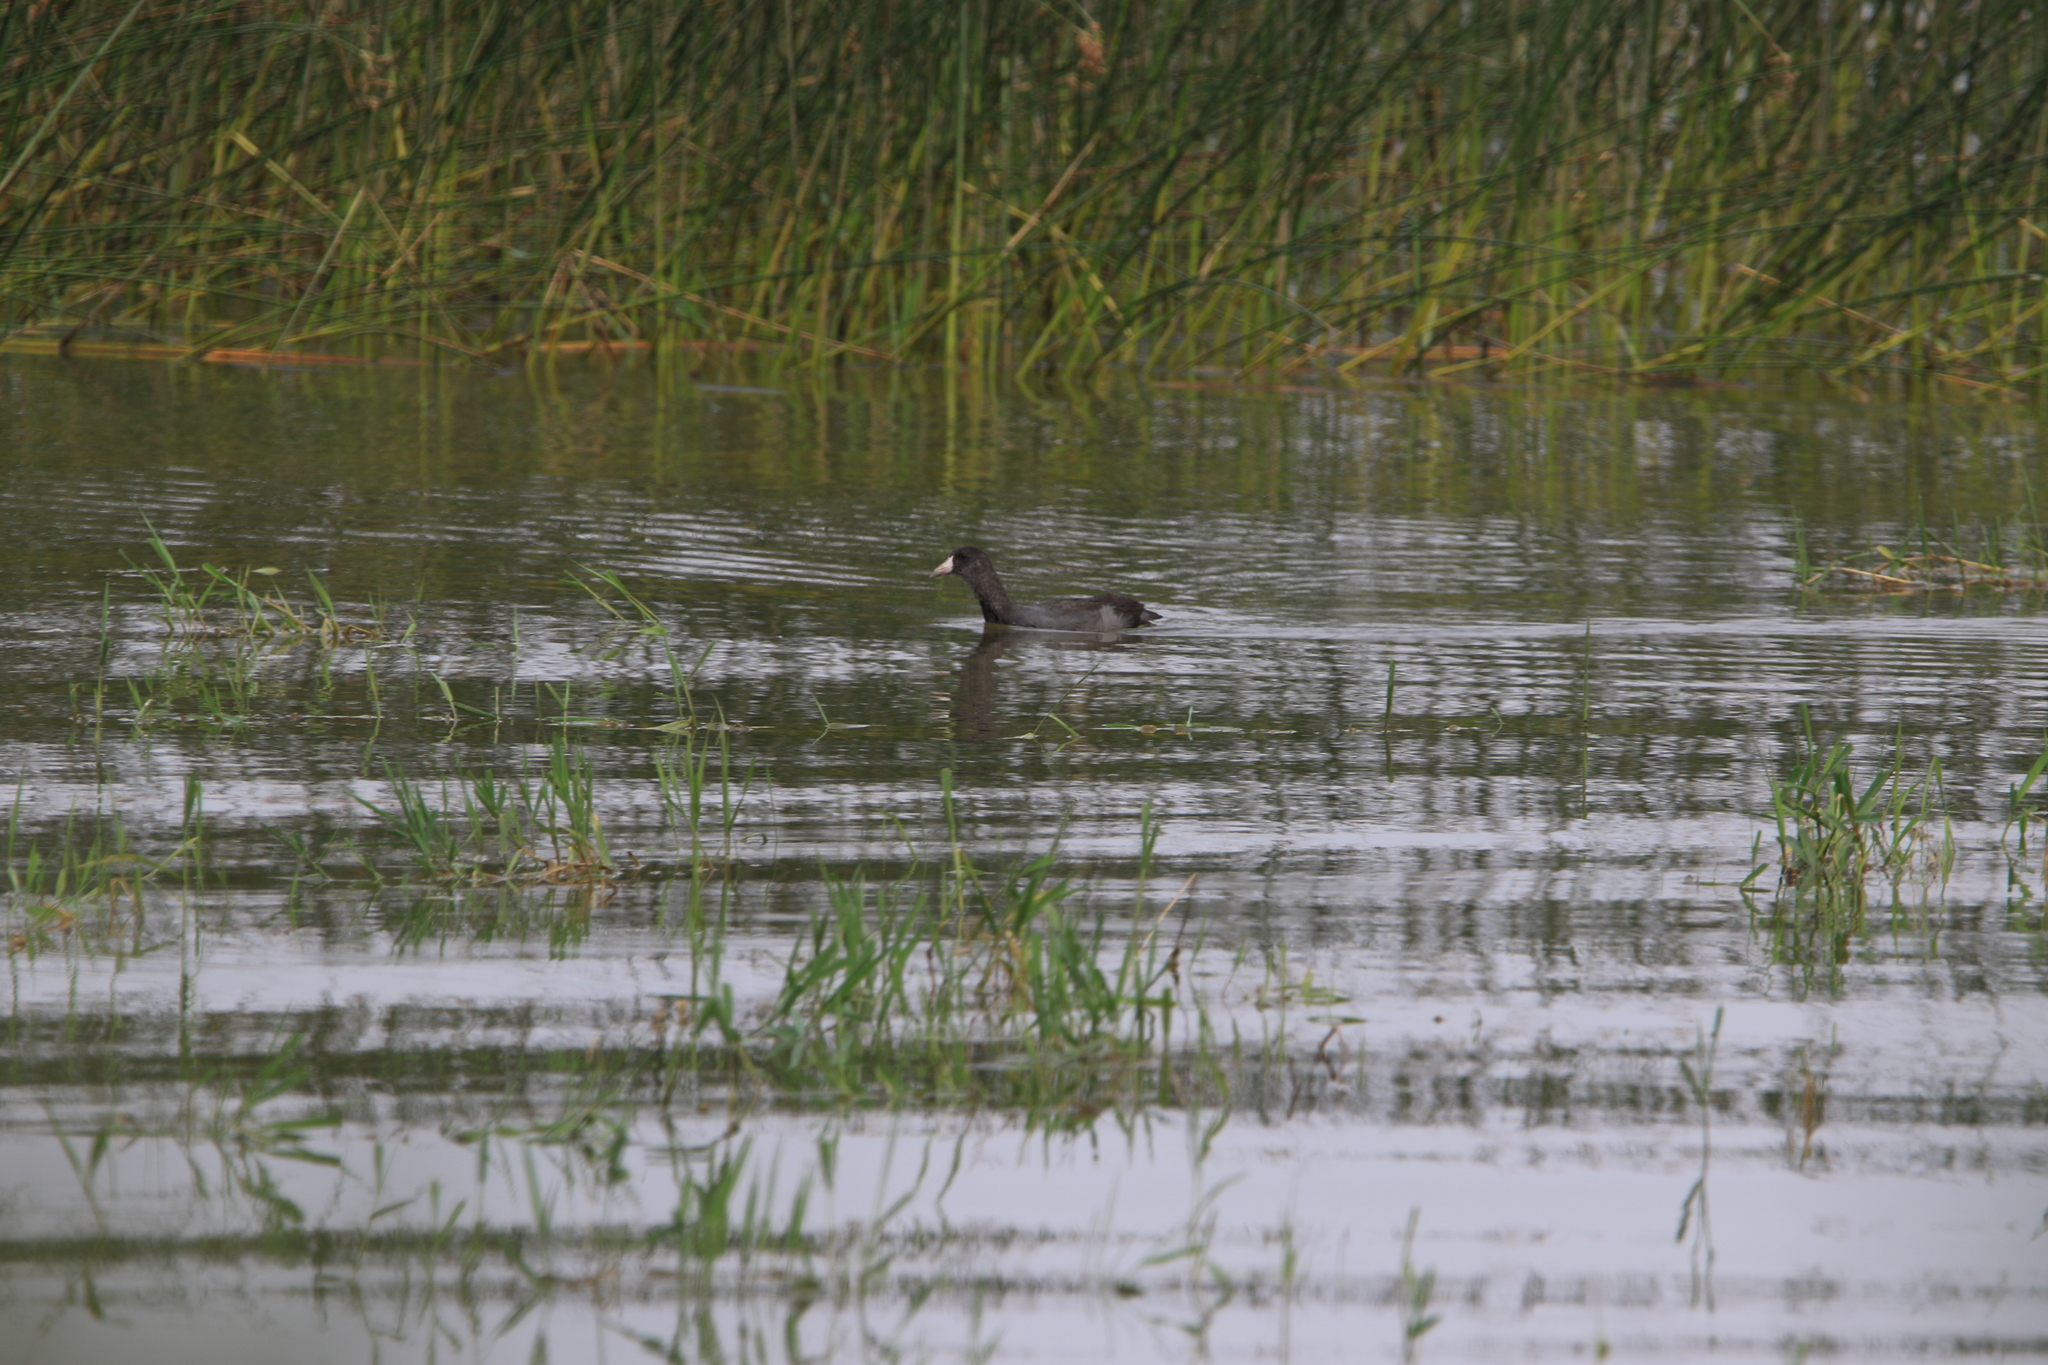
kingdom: Animalia
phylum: Chordata
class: Aves
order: Gruiformes
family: Rallidae
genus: Fulica
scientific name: Fulica americana
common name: American coot
